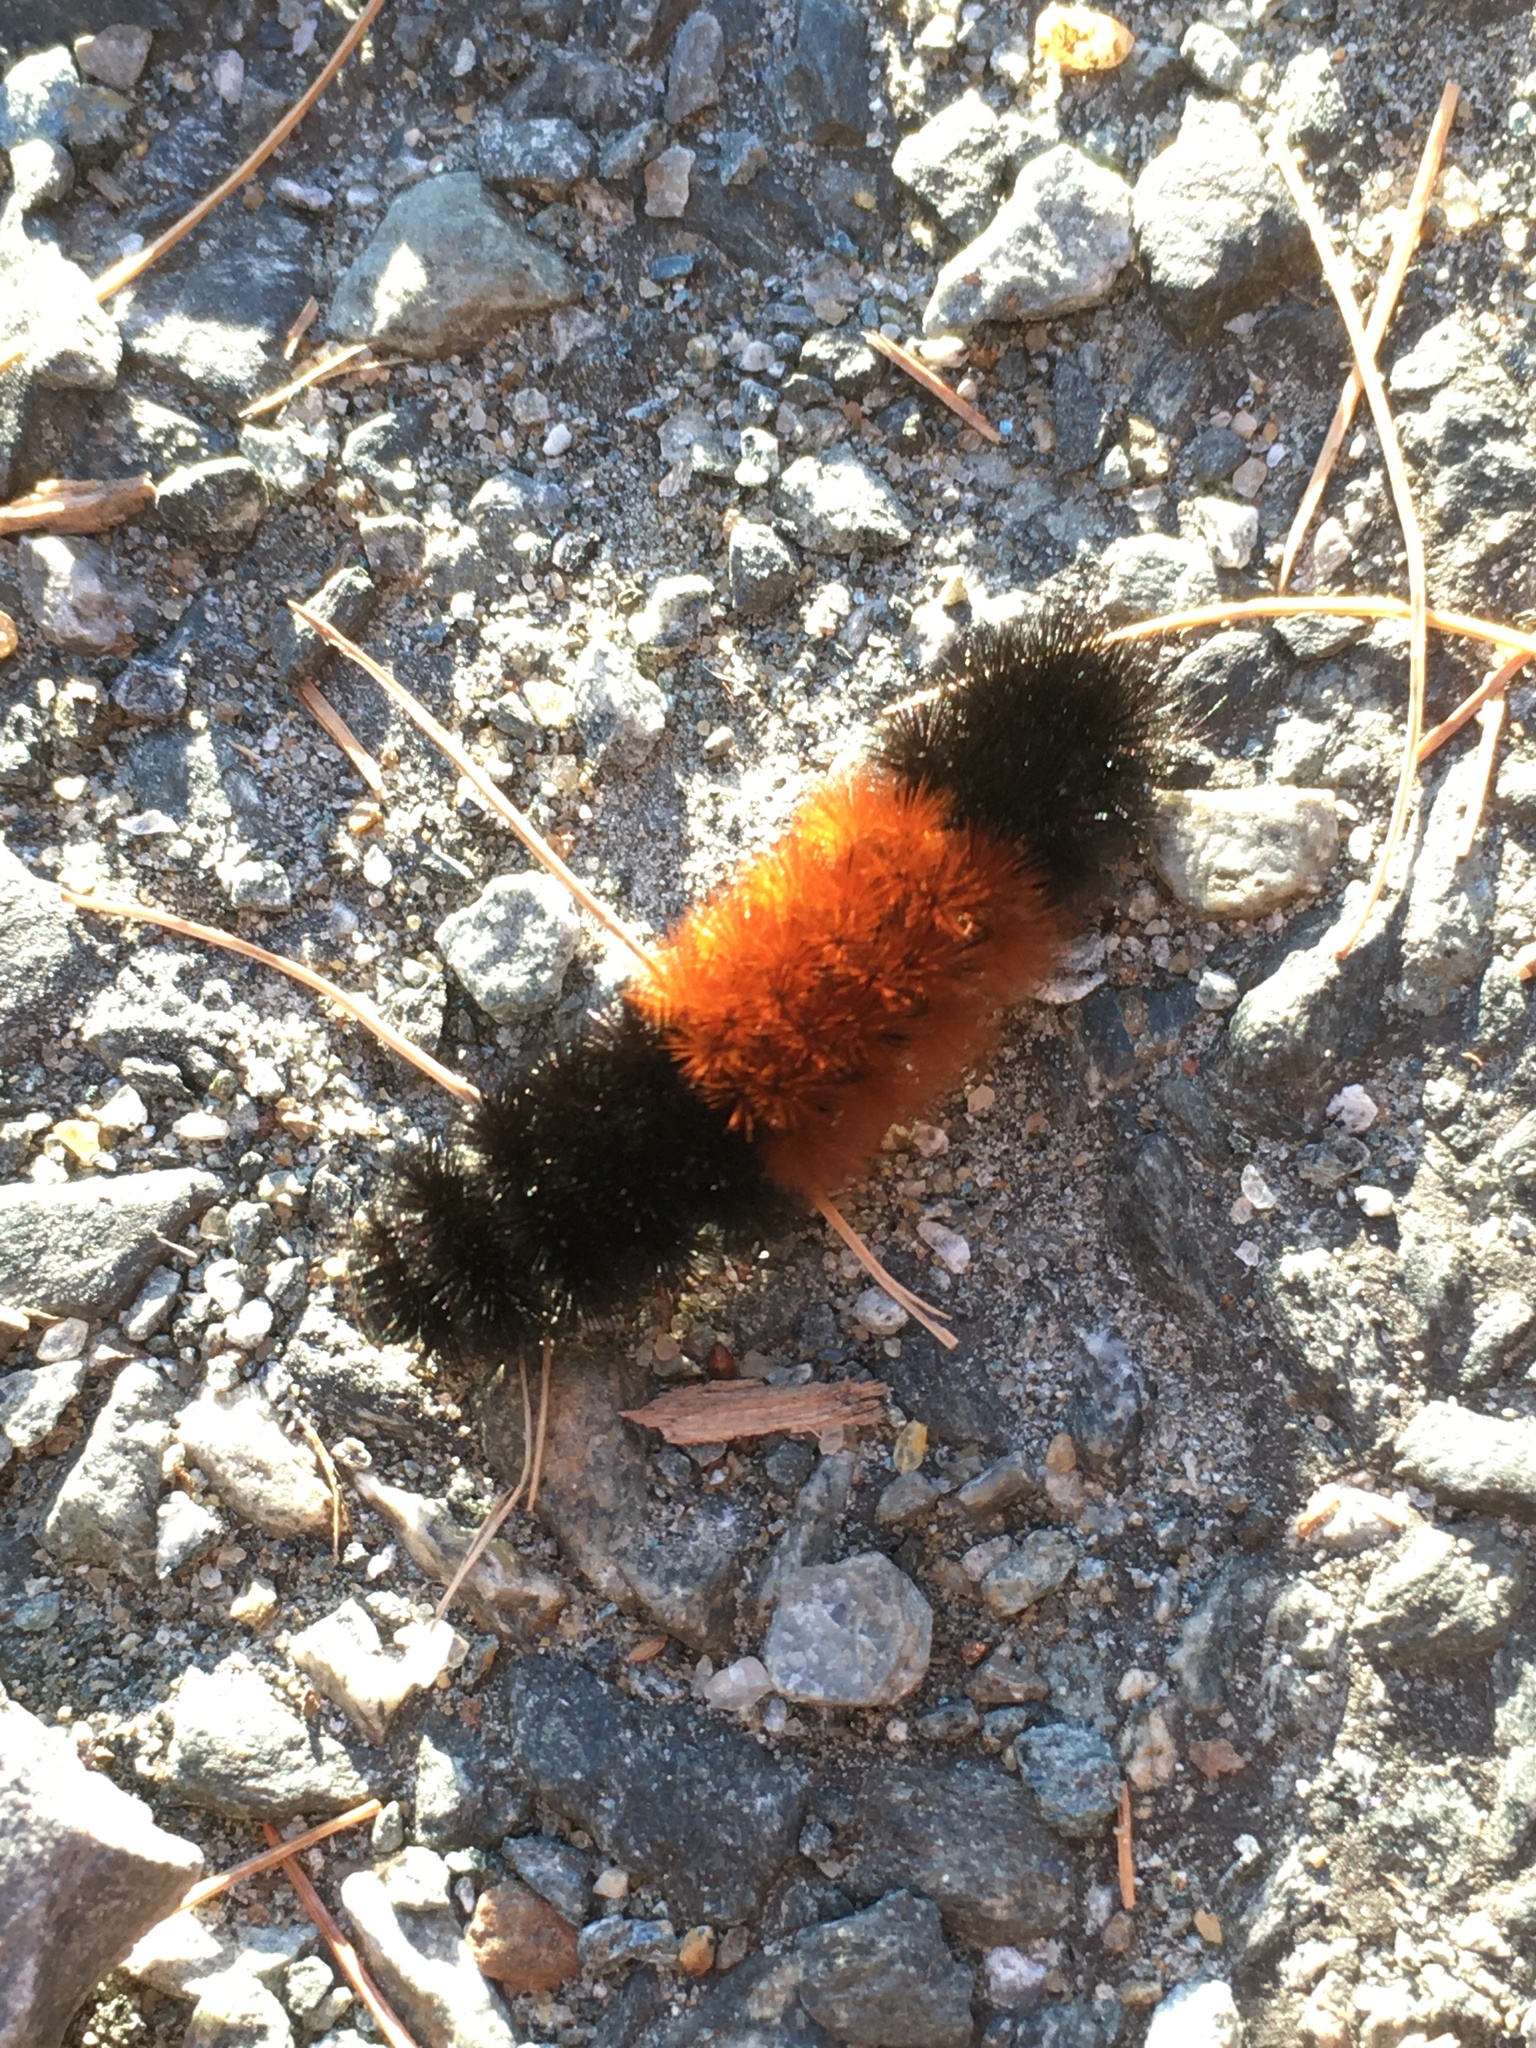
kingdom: Animalia
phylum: Arthropoda
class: Insecta
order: Lepidoptera
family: Erebidae
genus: Pyrrharctia
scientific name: Pyrrharctia isabella
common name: Isabella tiger moth
